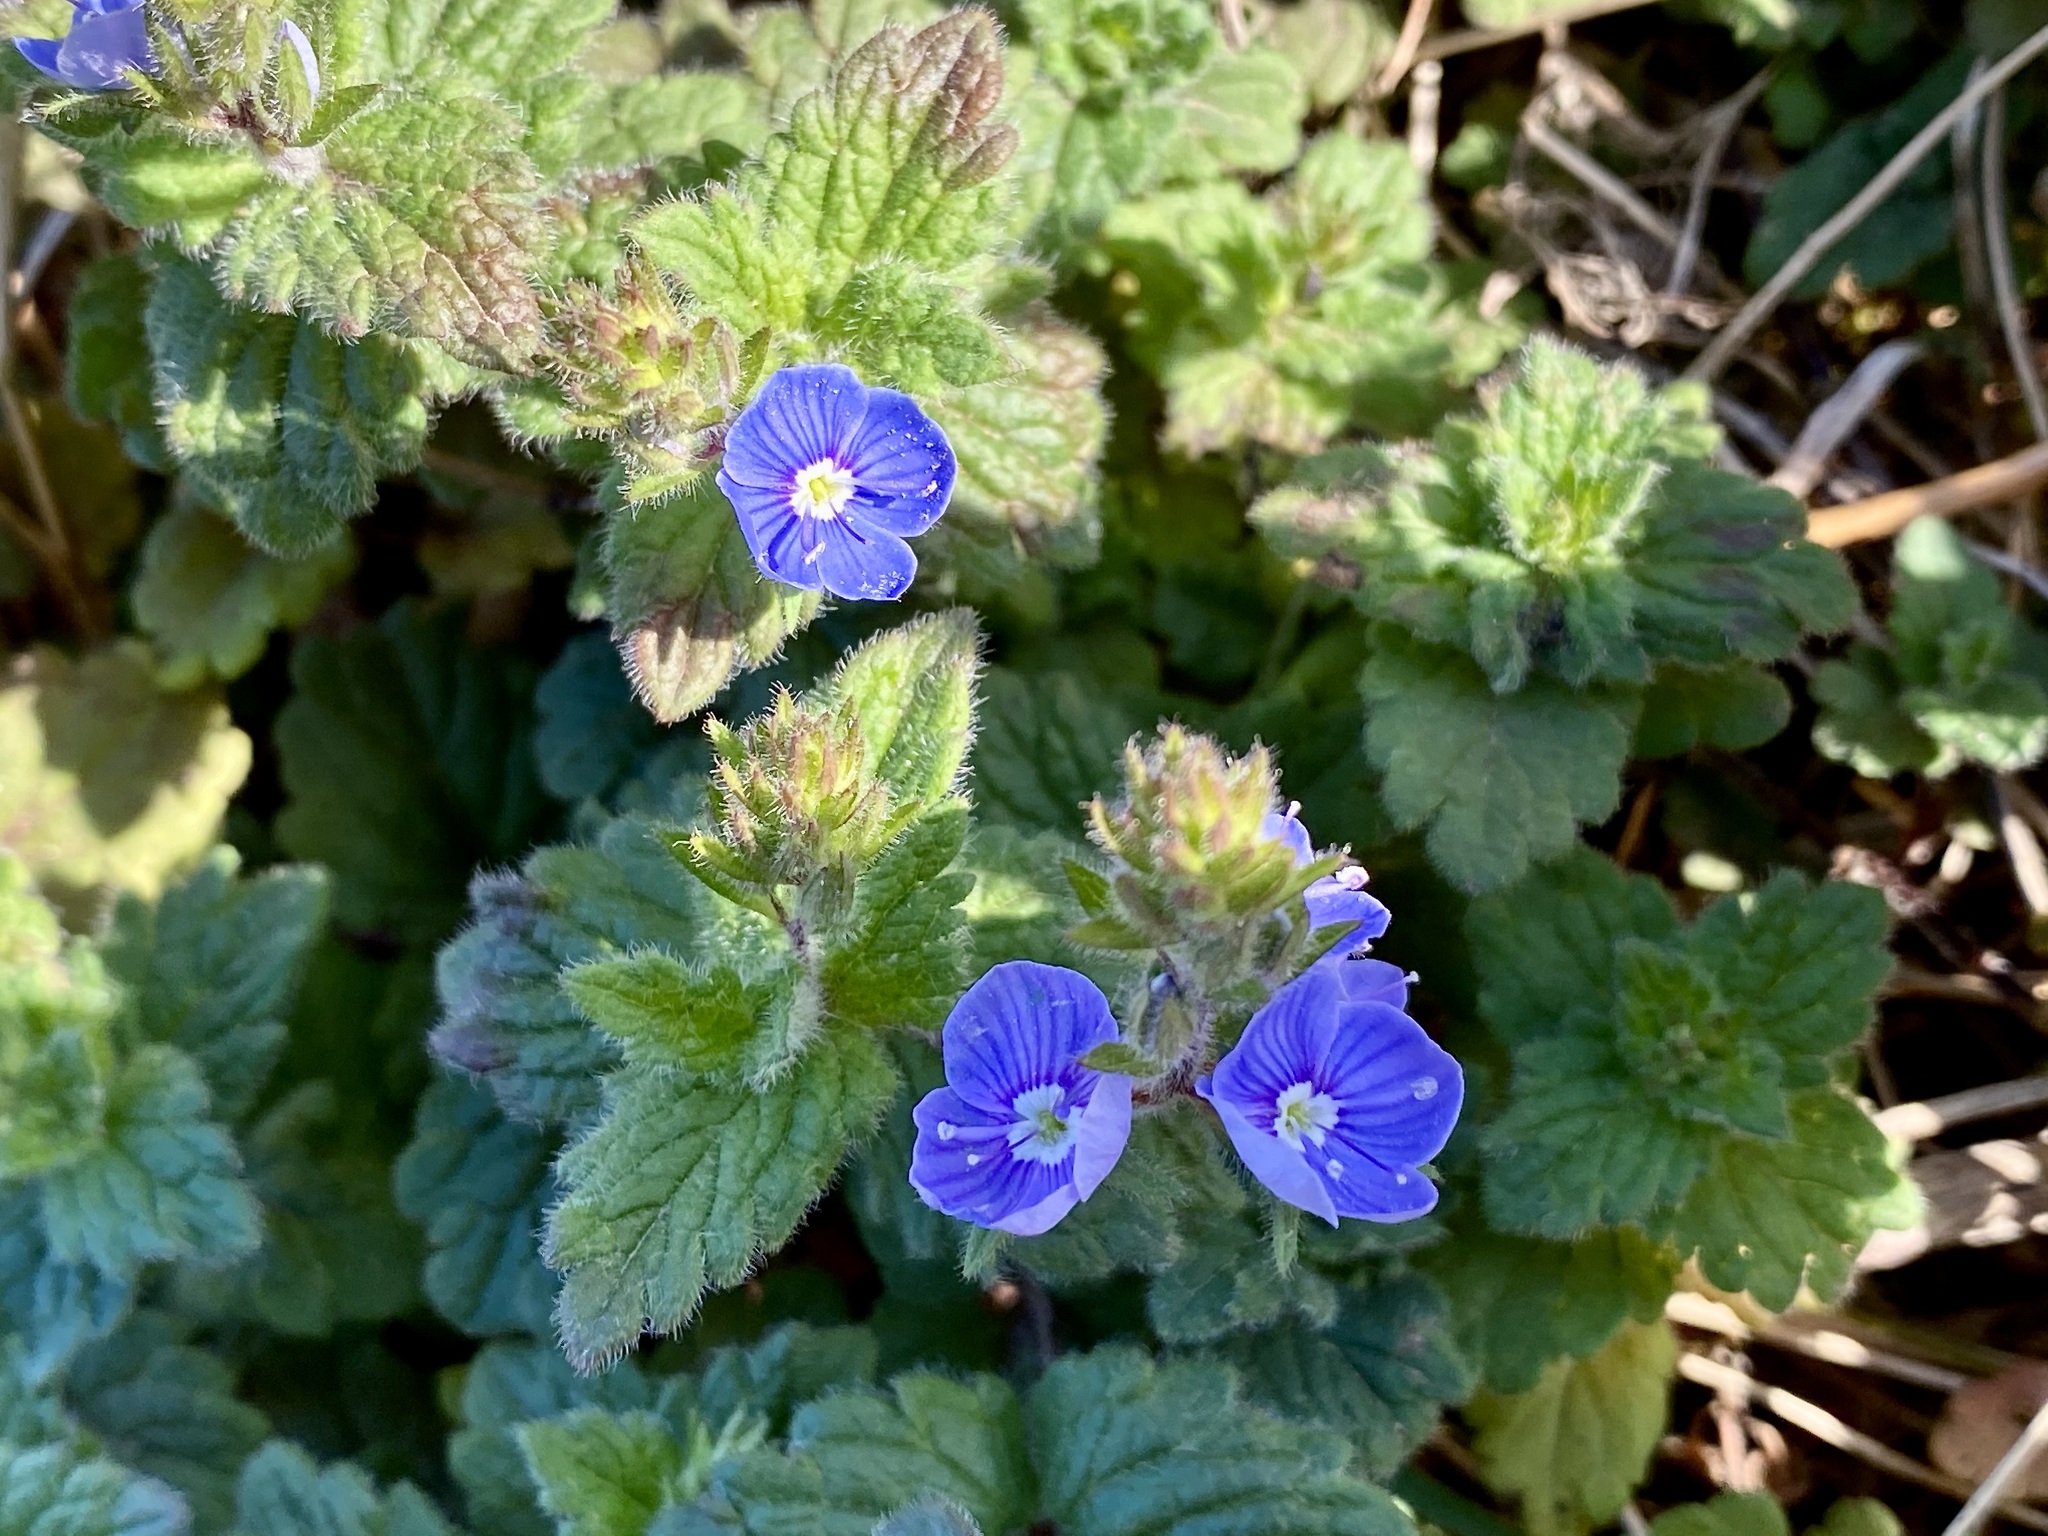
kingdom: Plantae
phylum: Tracheophyta
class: Magnoliopsida
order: Lamiales
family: Plantaginaceae
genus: Veronica
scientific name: Veronica chamaedrys
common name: Germander speedwell
